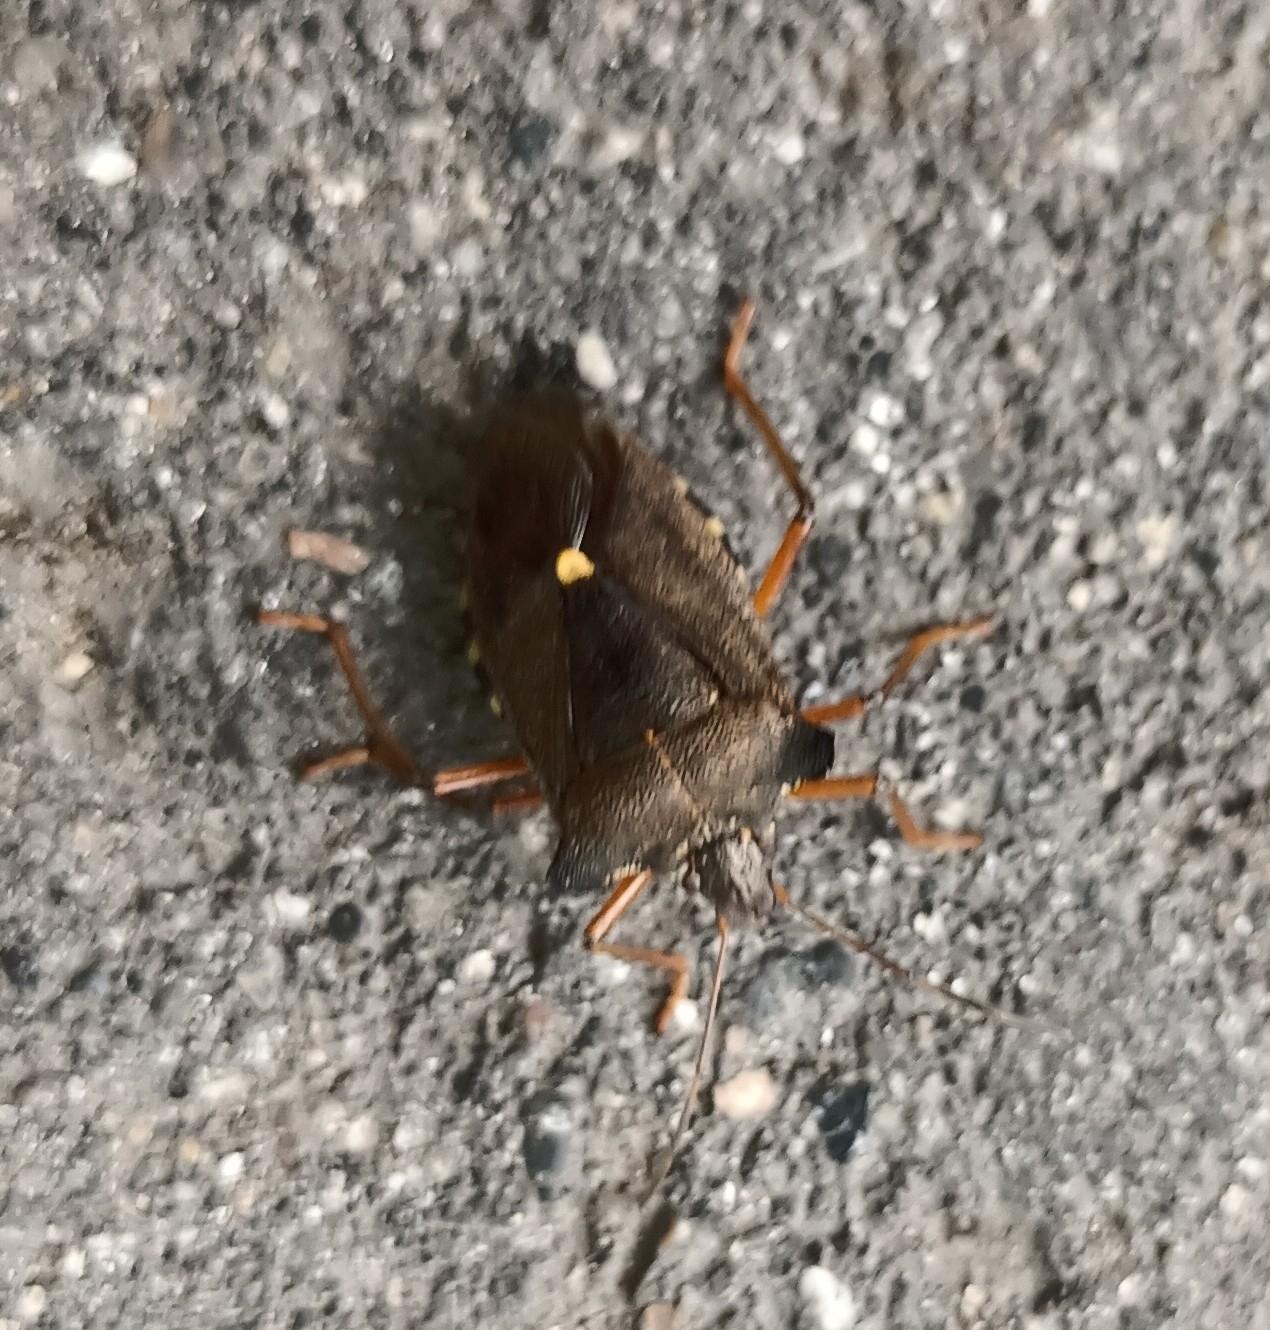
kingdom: Animalia
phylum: Arthropoda
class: Insecta
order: Hemiptera
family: Pentatomidae
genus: Pentatoma
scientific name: Pentatoma rufipes
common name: Forest bug
